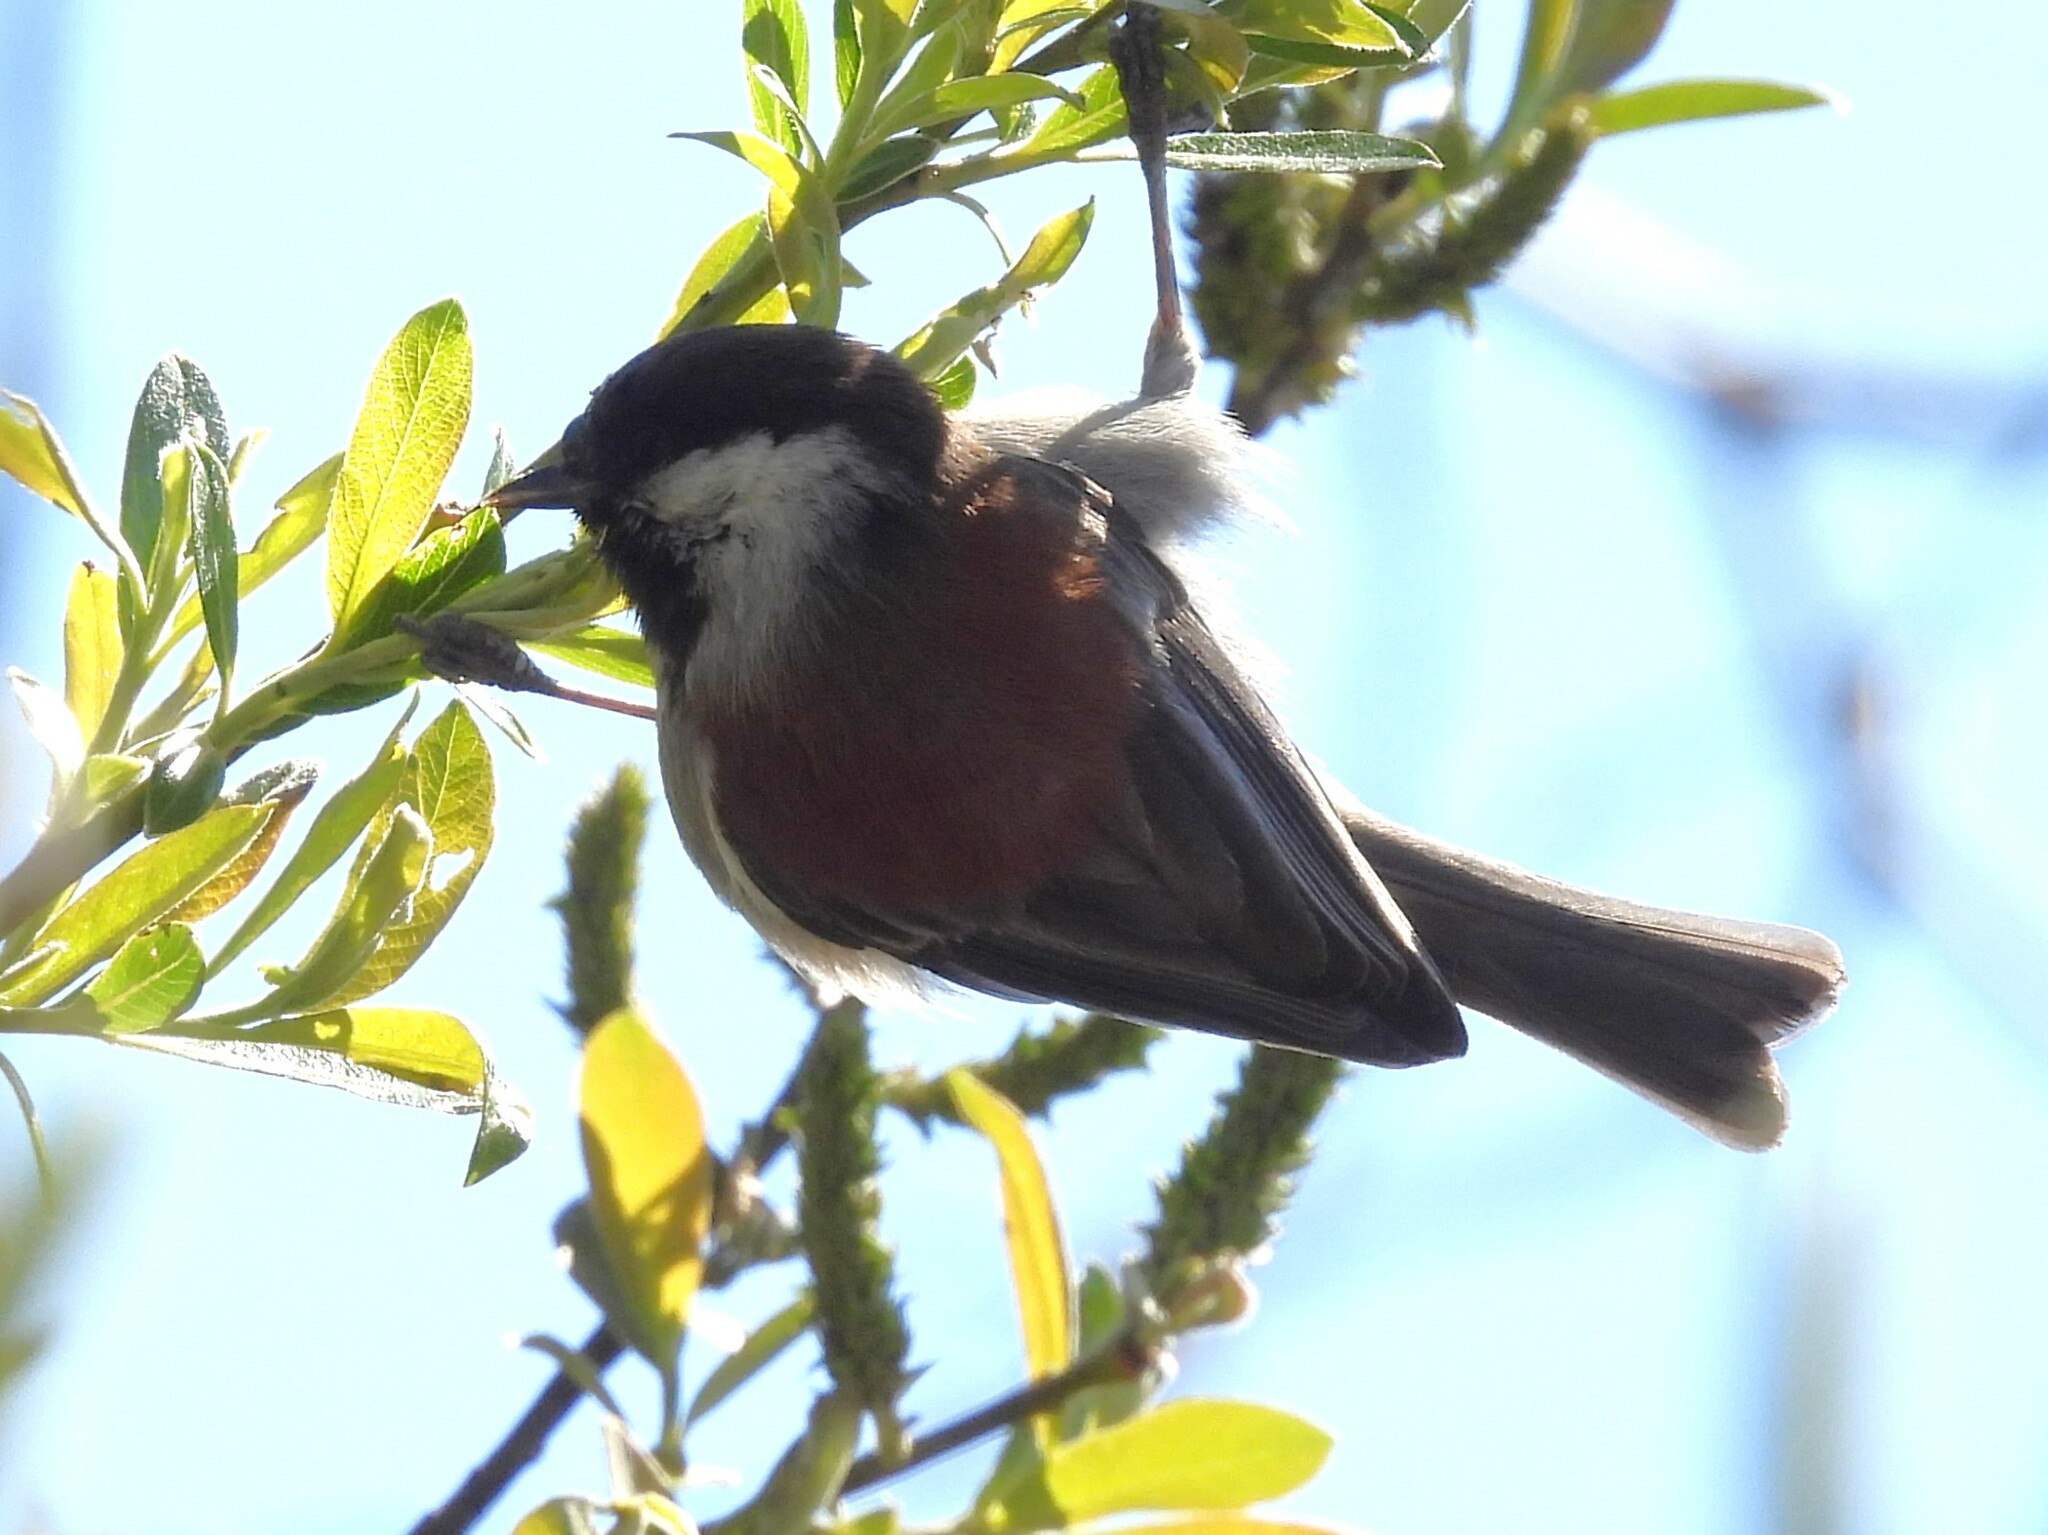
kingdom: Animalia
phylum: Chordata
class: Aves
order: Passeriformes
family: Paridae
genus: Poecile
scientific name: Poecile rufescens
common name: Chestnut-backed chickadee
